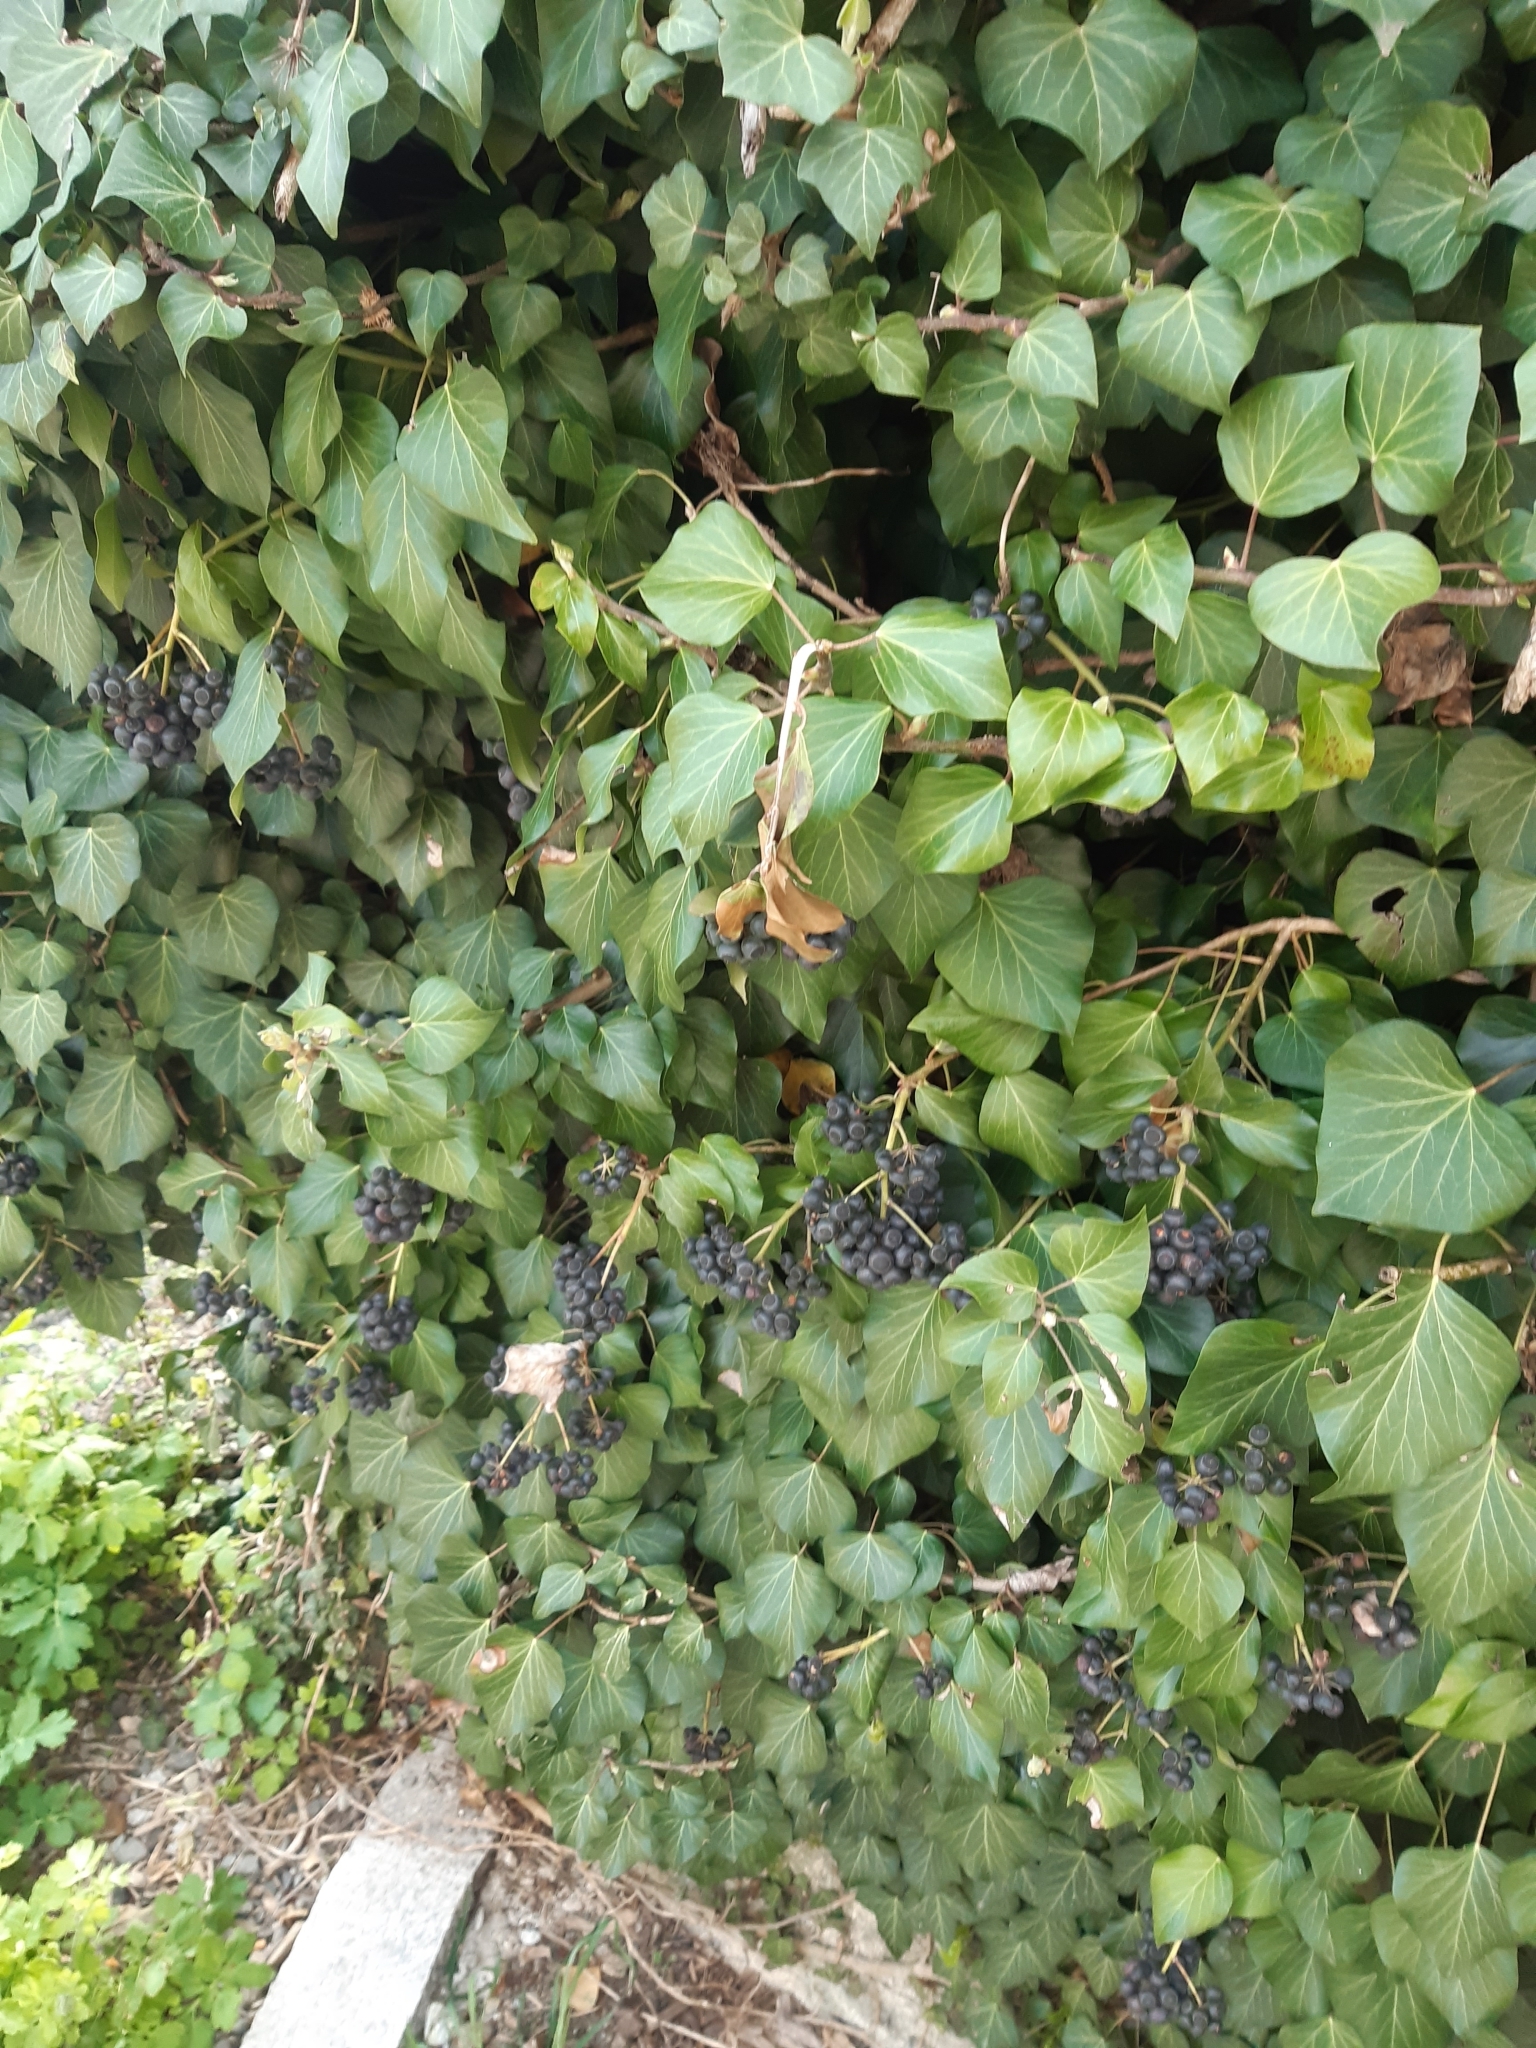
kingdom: Plantae
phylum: Tracheophyta
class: Magnoliopsida
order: Apiales
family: Araliaceae
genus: Hedera
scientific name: Hedera helix
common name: Ivy
